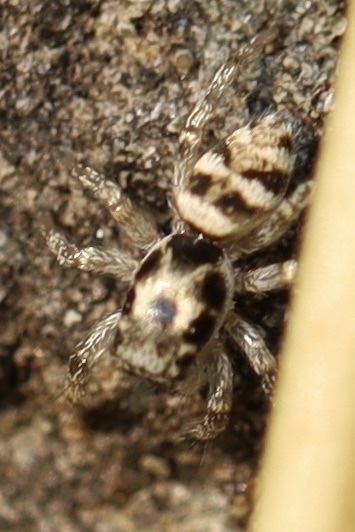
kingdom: Animalia
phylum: Arthropoda
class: Arachnida
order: Araneae
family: Salticidae
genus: Salticus
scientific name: Salticus scenicus
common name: Zebra jumper
